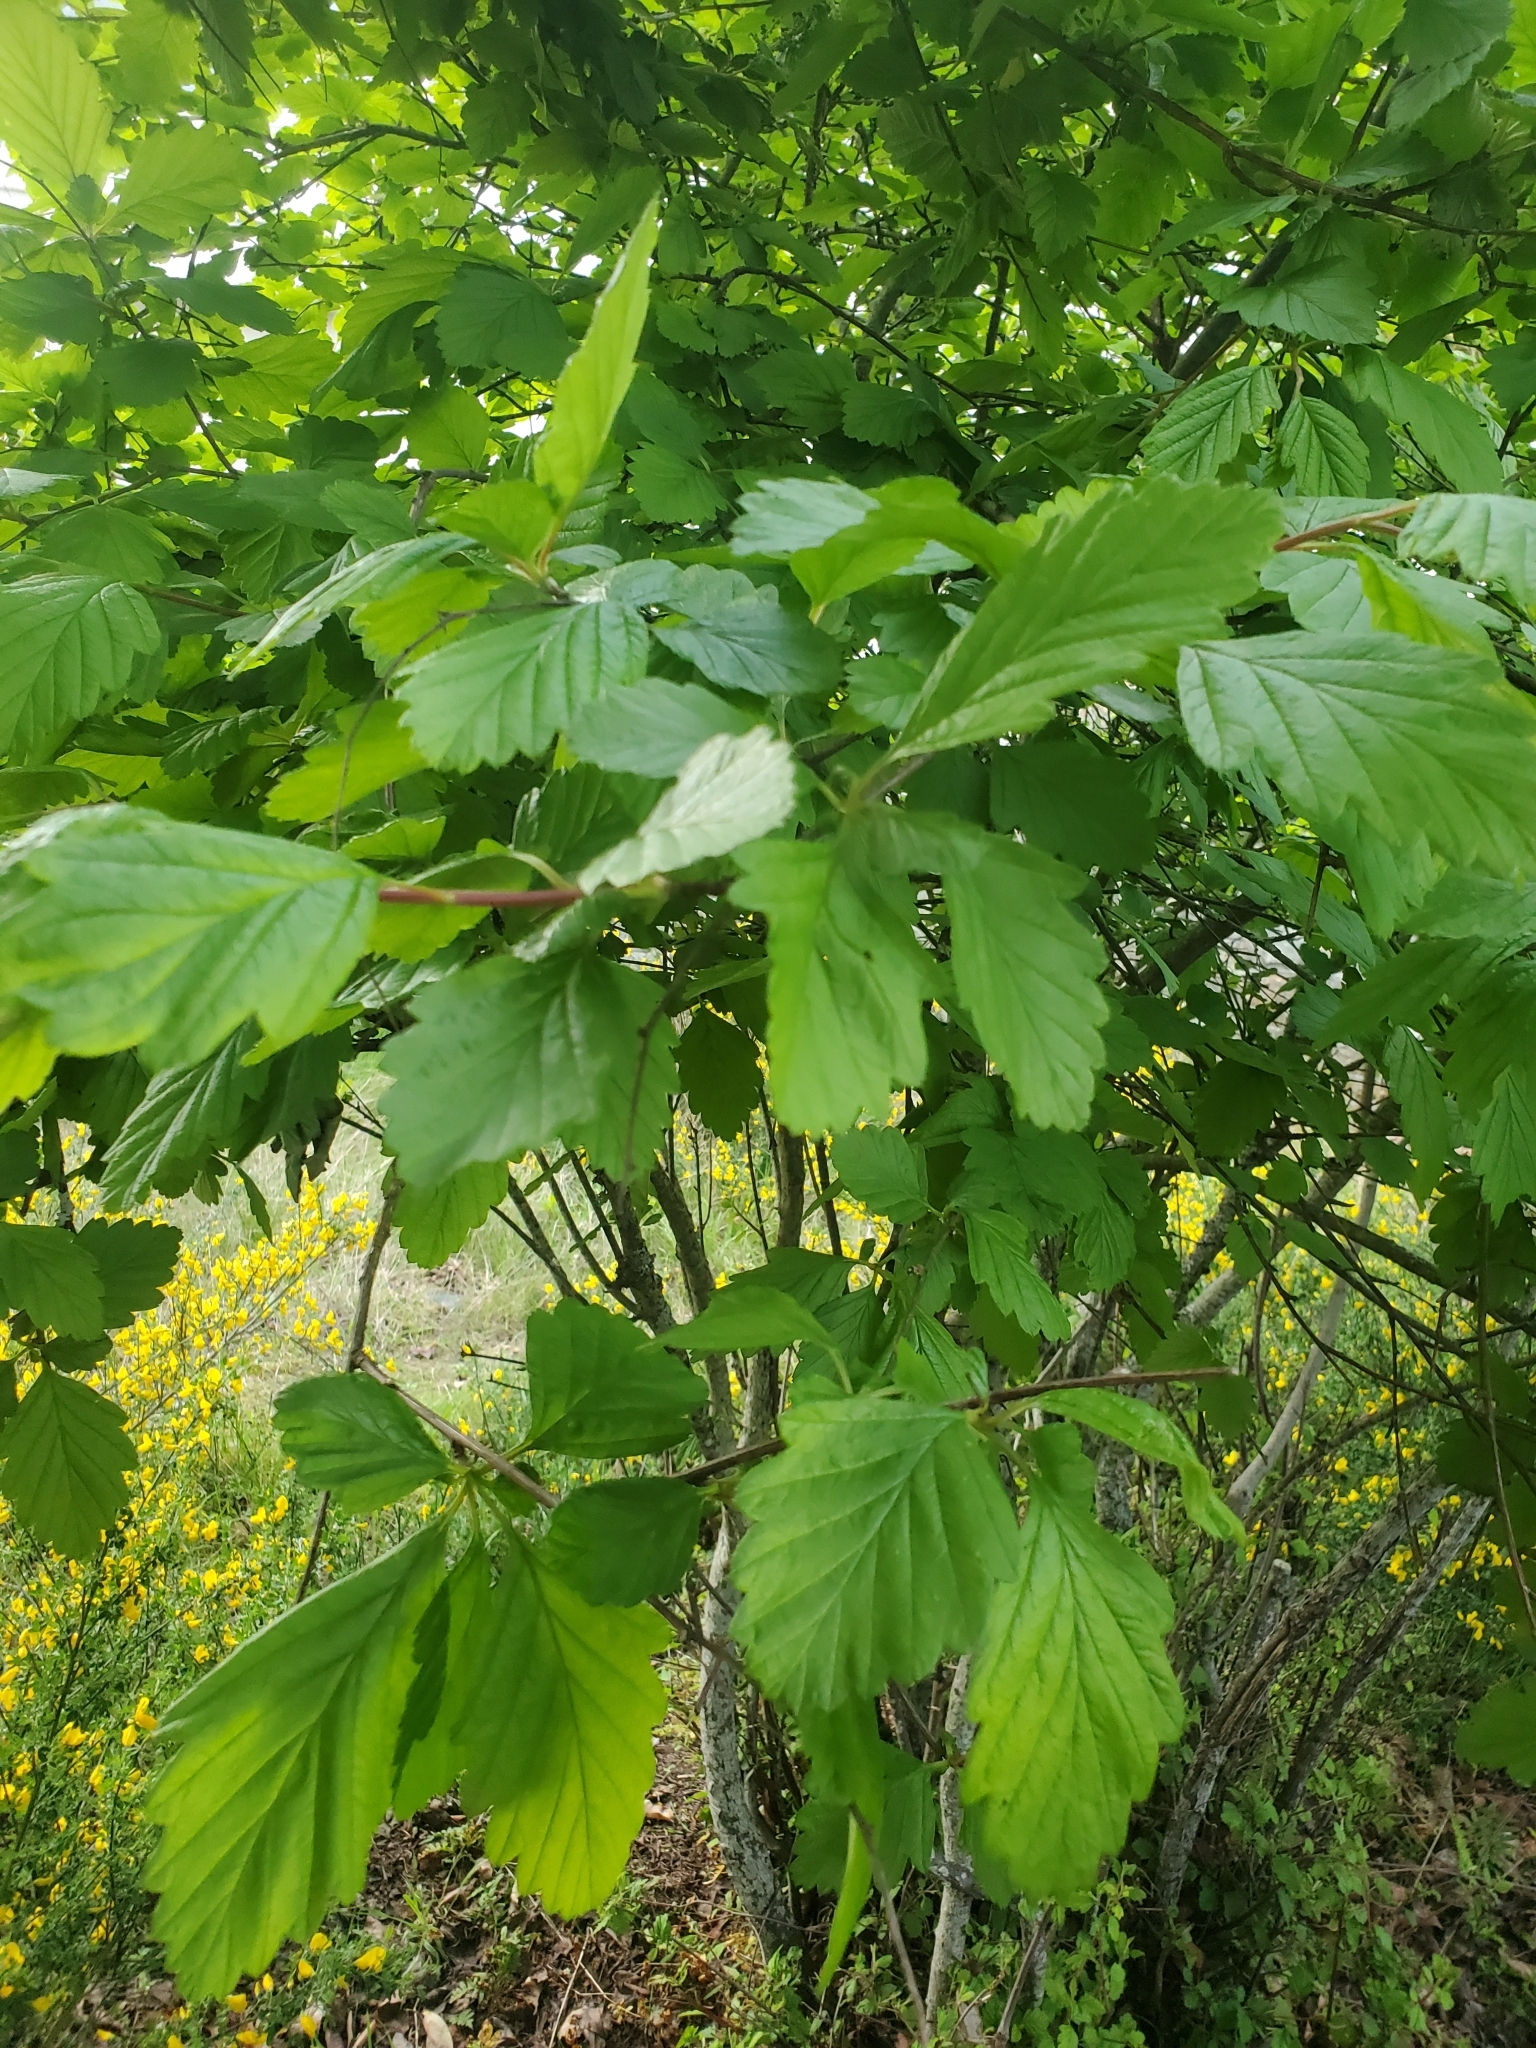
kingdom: Plantae
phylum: Tracheophyta
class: Magnoliopsida
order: Rosales
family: Rosaceae
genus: Holodiscus
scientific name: Holodiscus discolor
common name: Oceanspray
